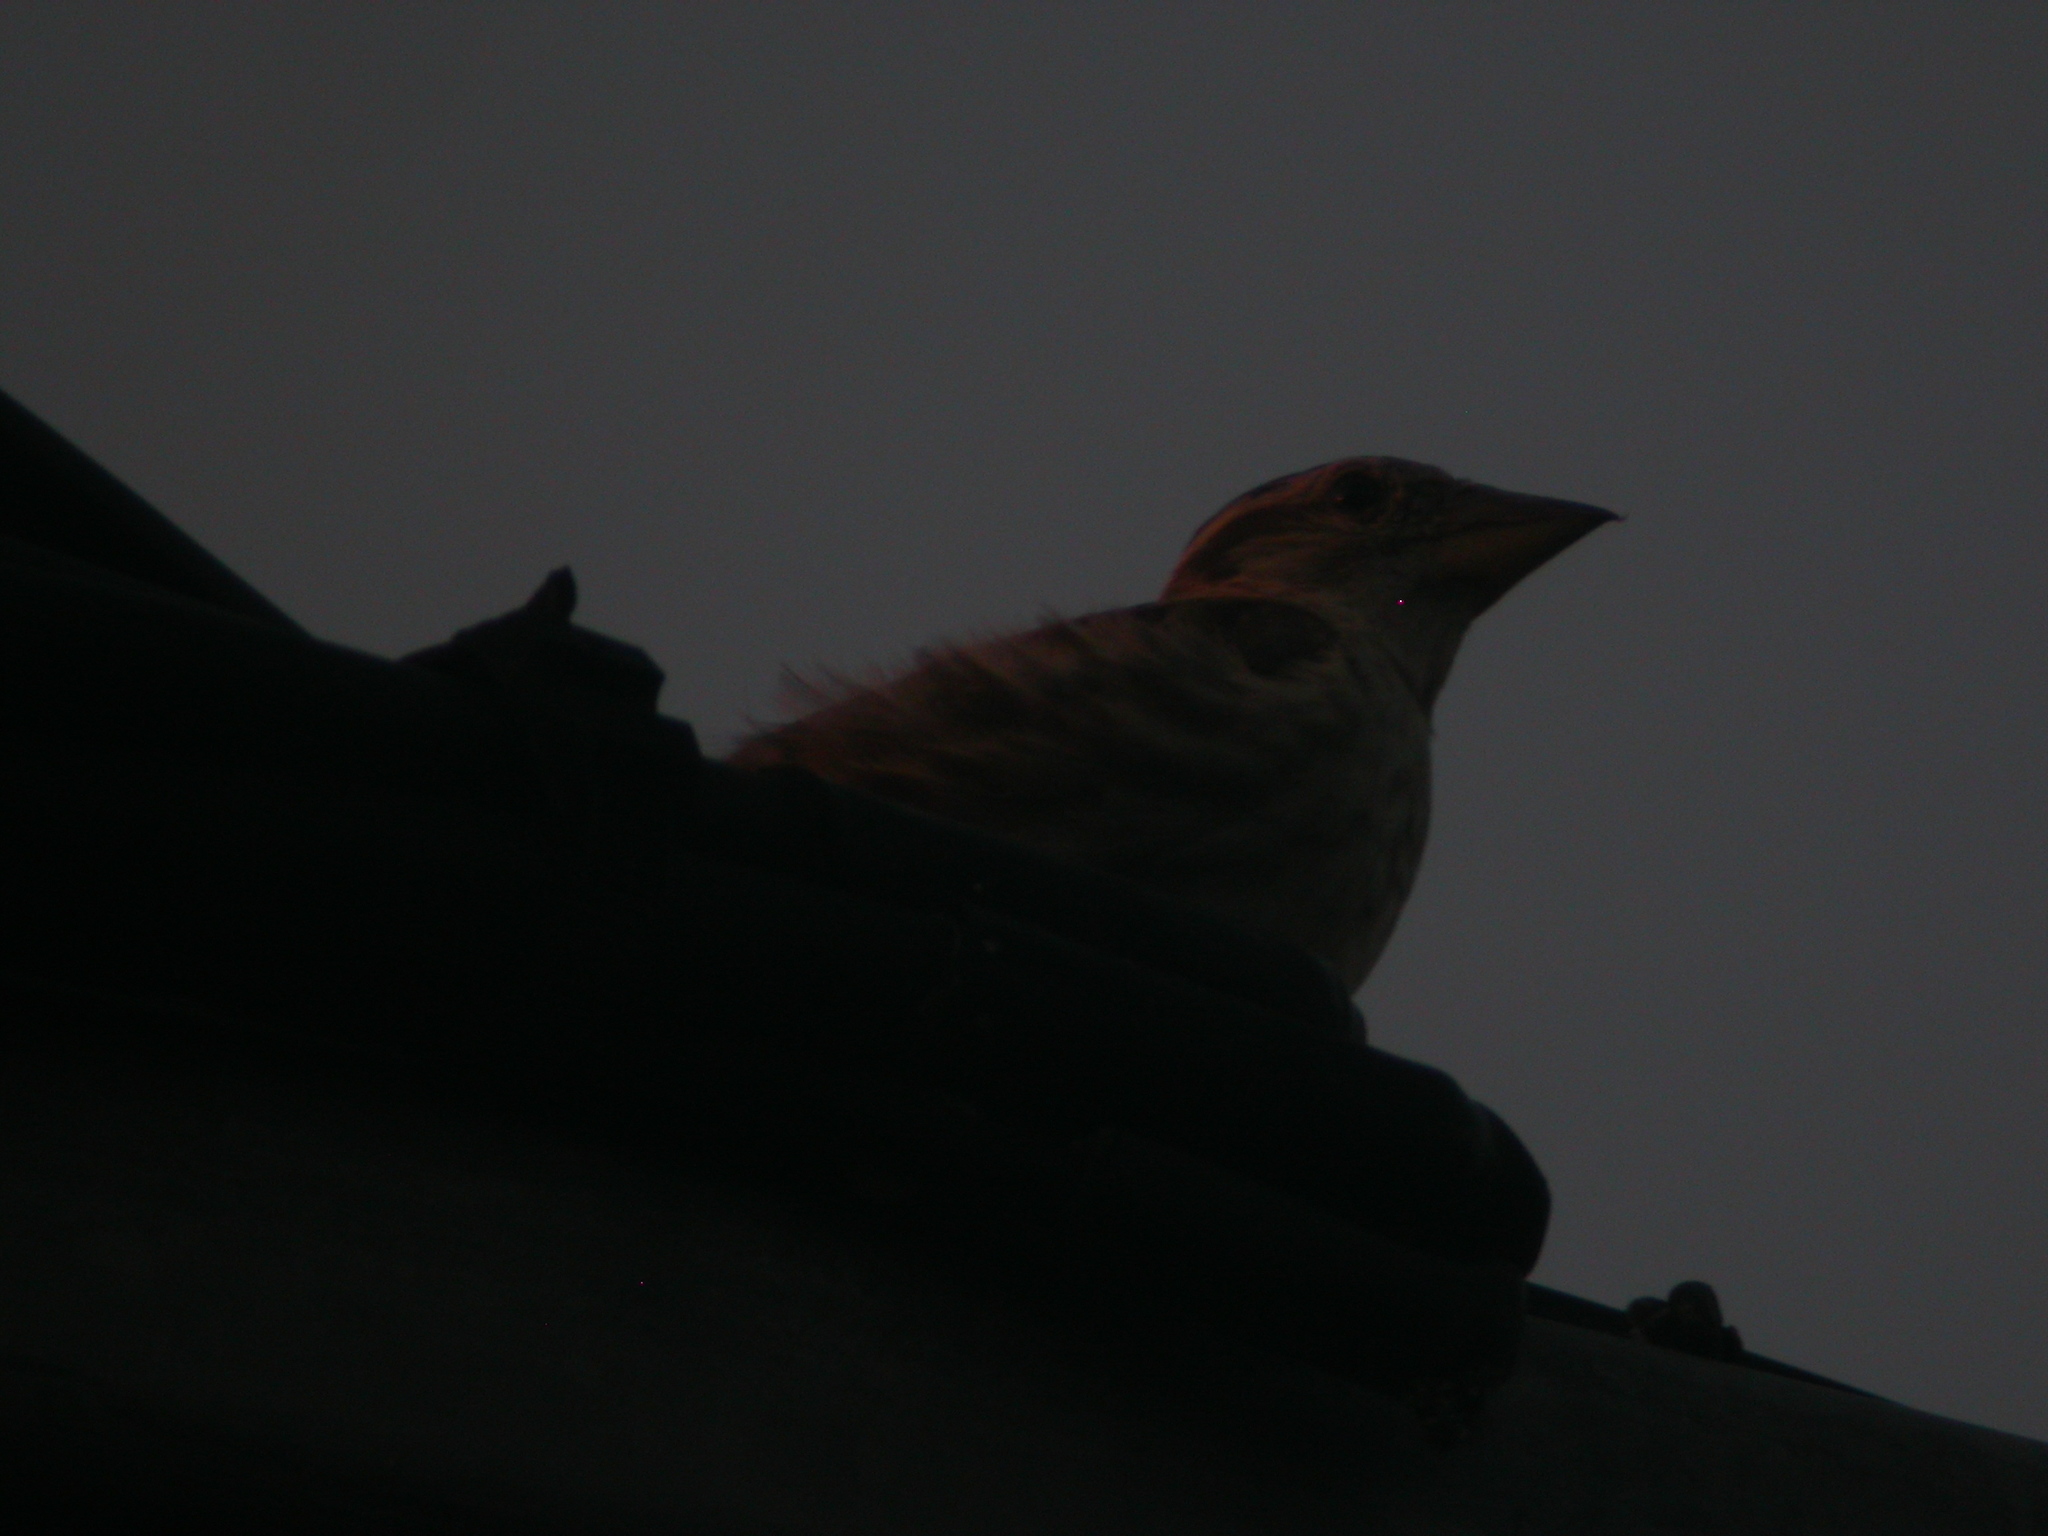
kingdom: Animalia
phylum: Chordata
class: Aves
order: Passeriformes
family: Passeridae
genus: Petronia
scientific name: Petronia petronia
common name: Rock sparrow
